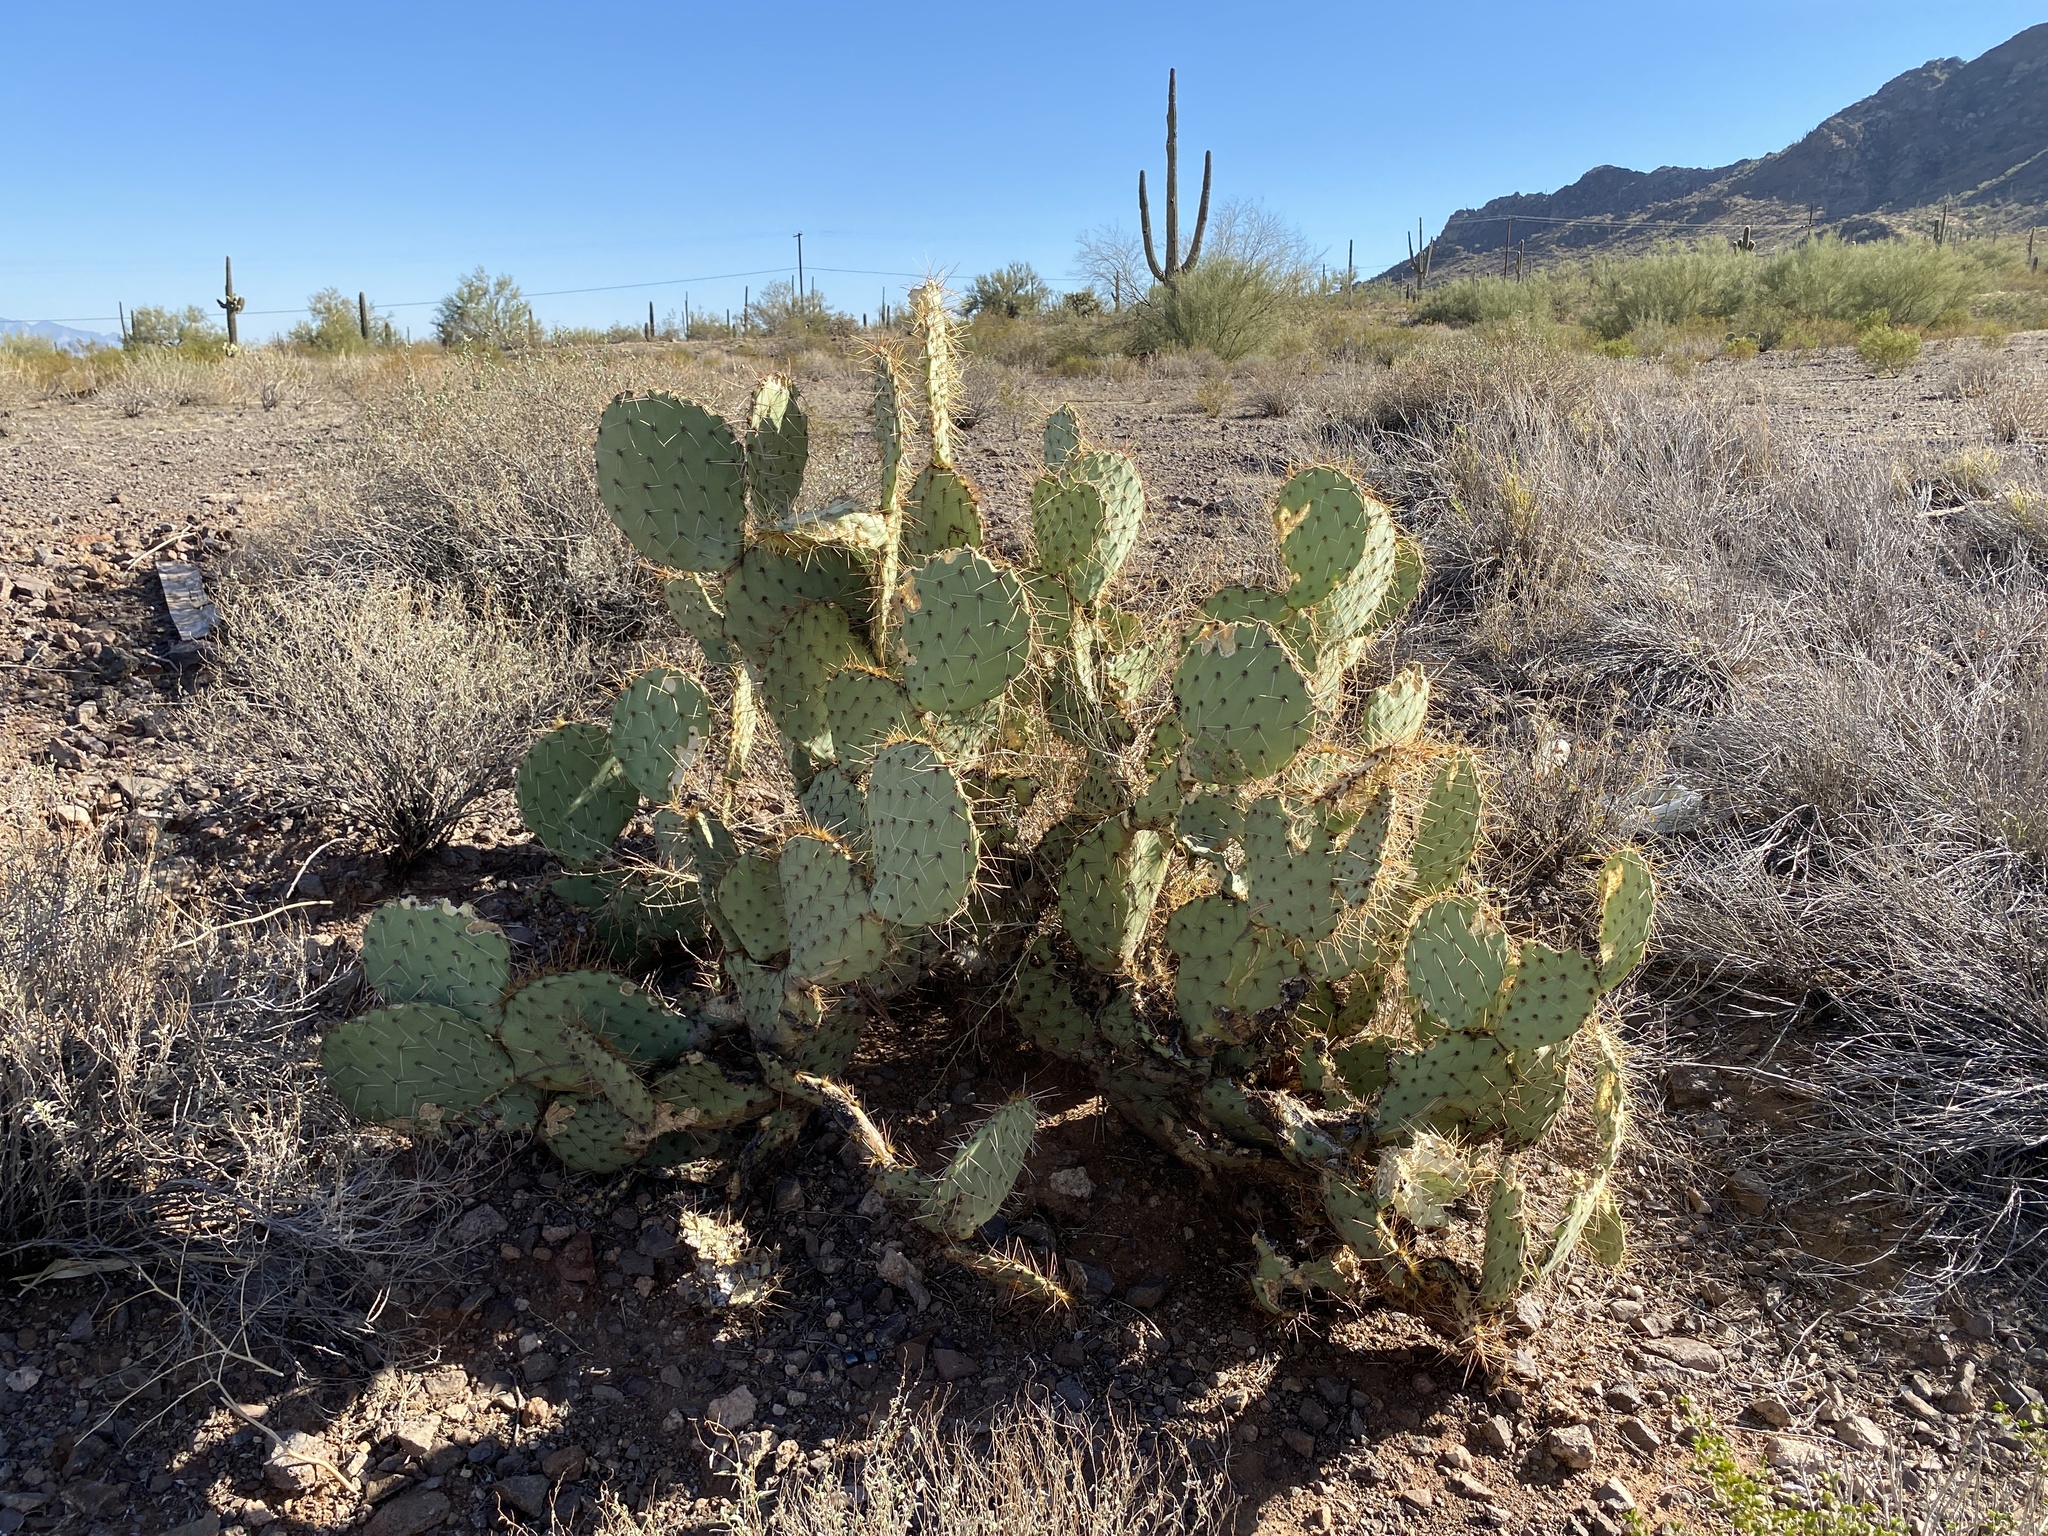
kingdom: Plantae
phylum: Tracheophyta
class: Magnoliopsida
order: Caryophyllales
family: Cactaceae
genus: Opuntia
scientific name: Opuntia engelmannii
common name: Cactus-apple
